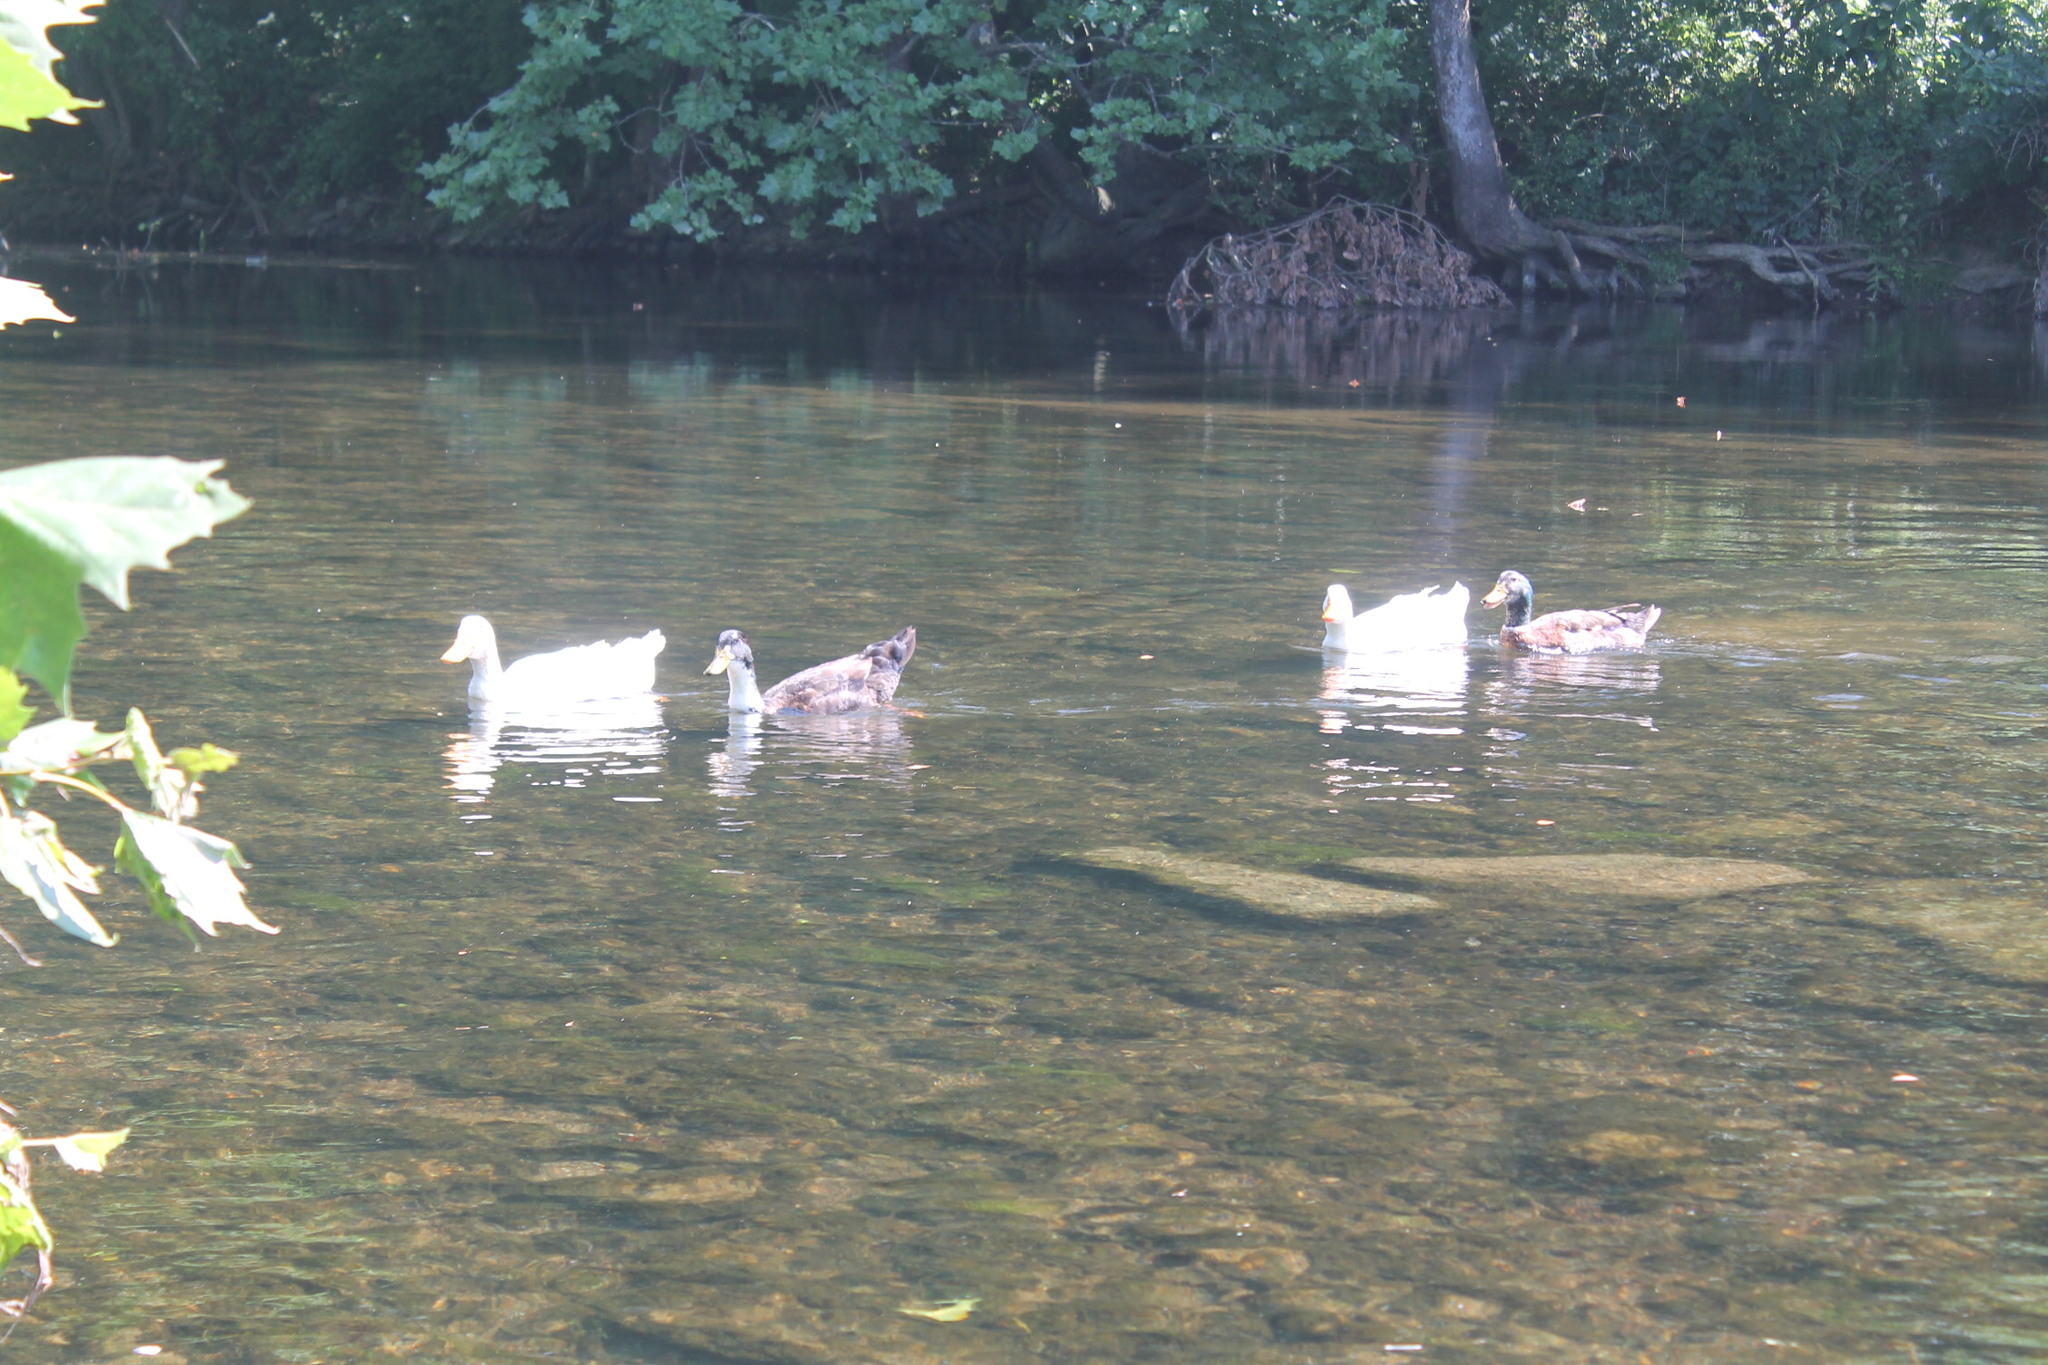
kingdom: Animalia
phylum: Chordata
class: Aves
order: Anseriformes
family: Anatidae
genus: Anas
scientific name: Anas platyrhynchos
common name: Mallard
